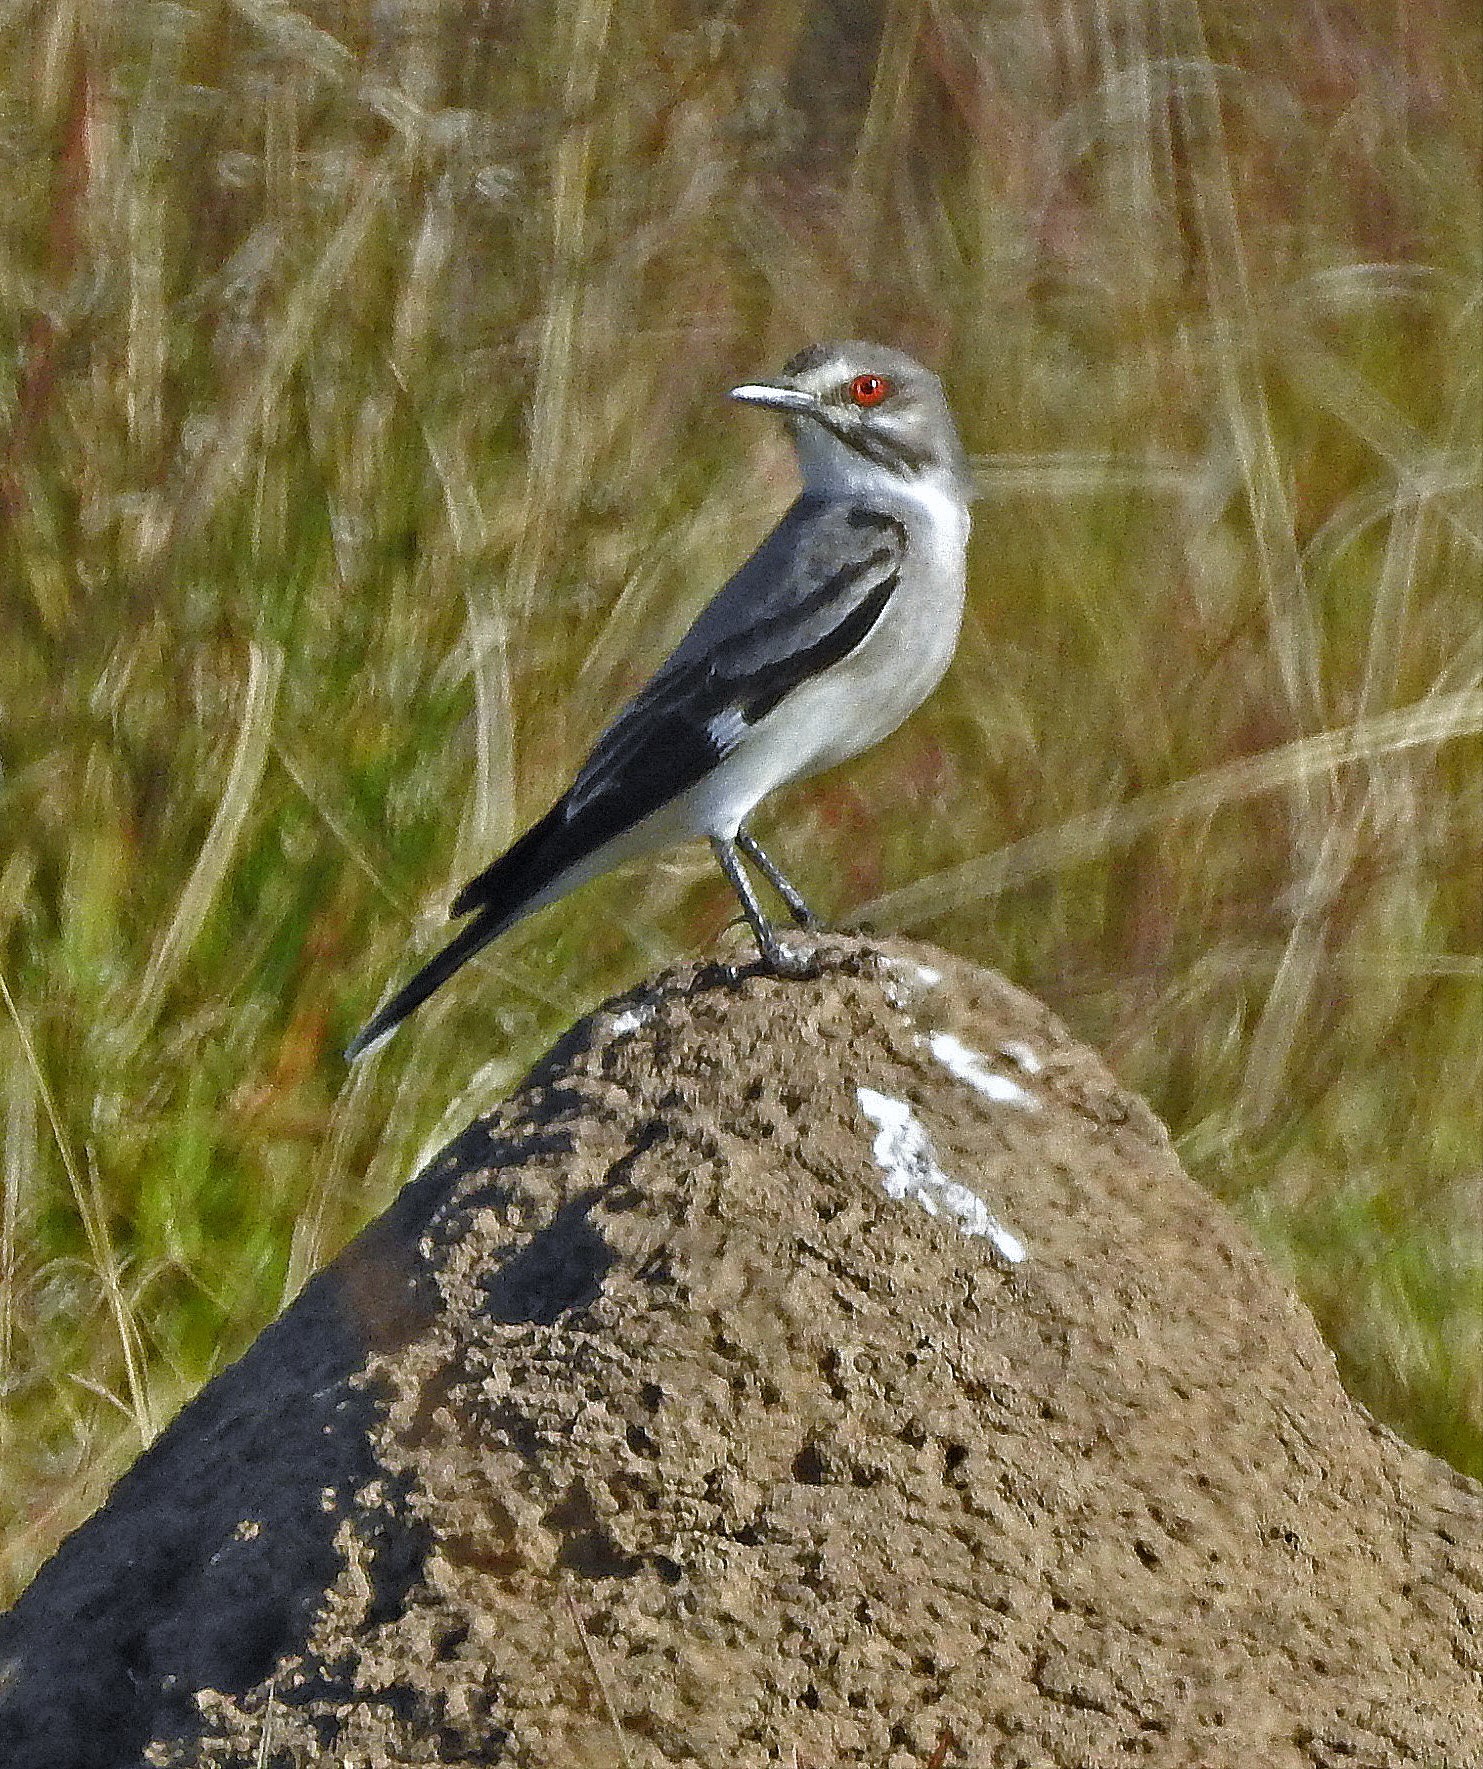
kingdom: Animalia
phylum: Chordata
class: Aves
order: Passeriformes
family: Tyrannidae
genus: Xolmis
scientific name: Xolmis cinereus
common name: Grey monjita
